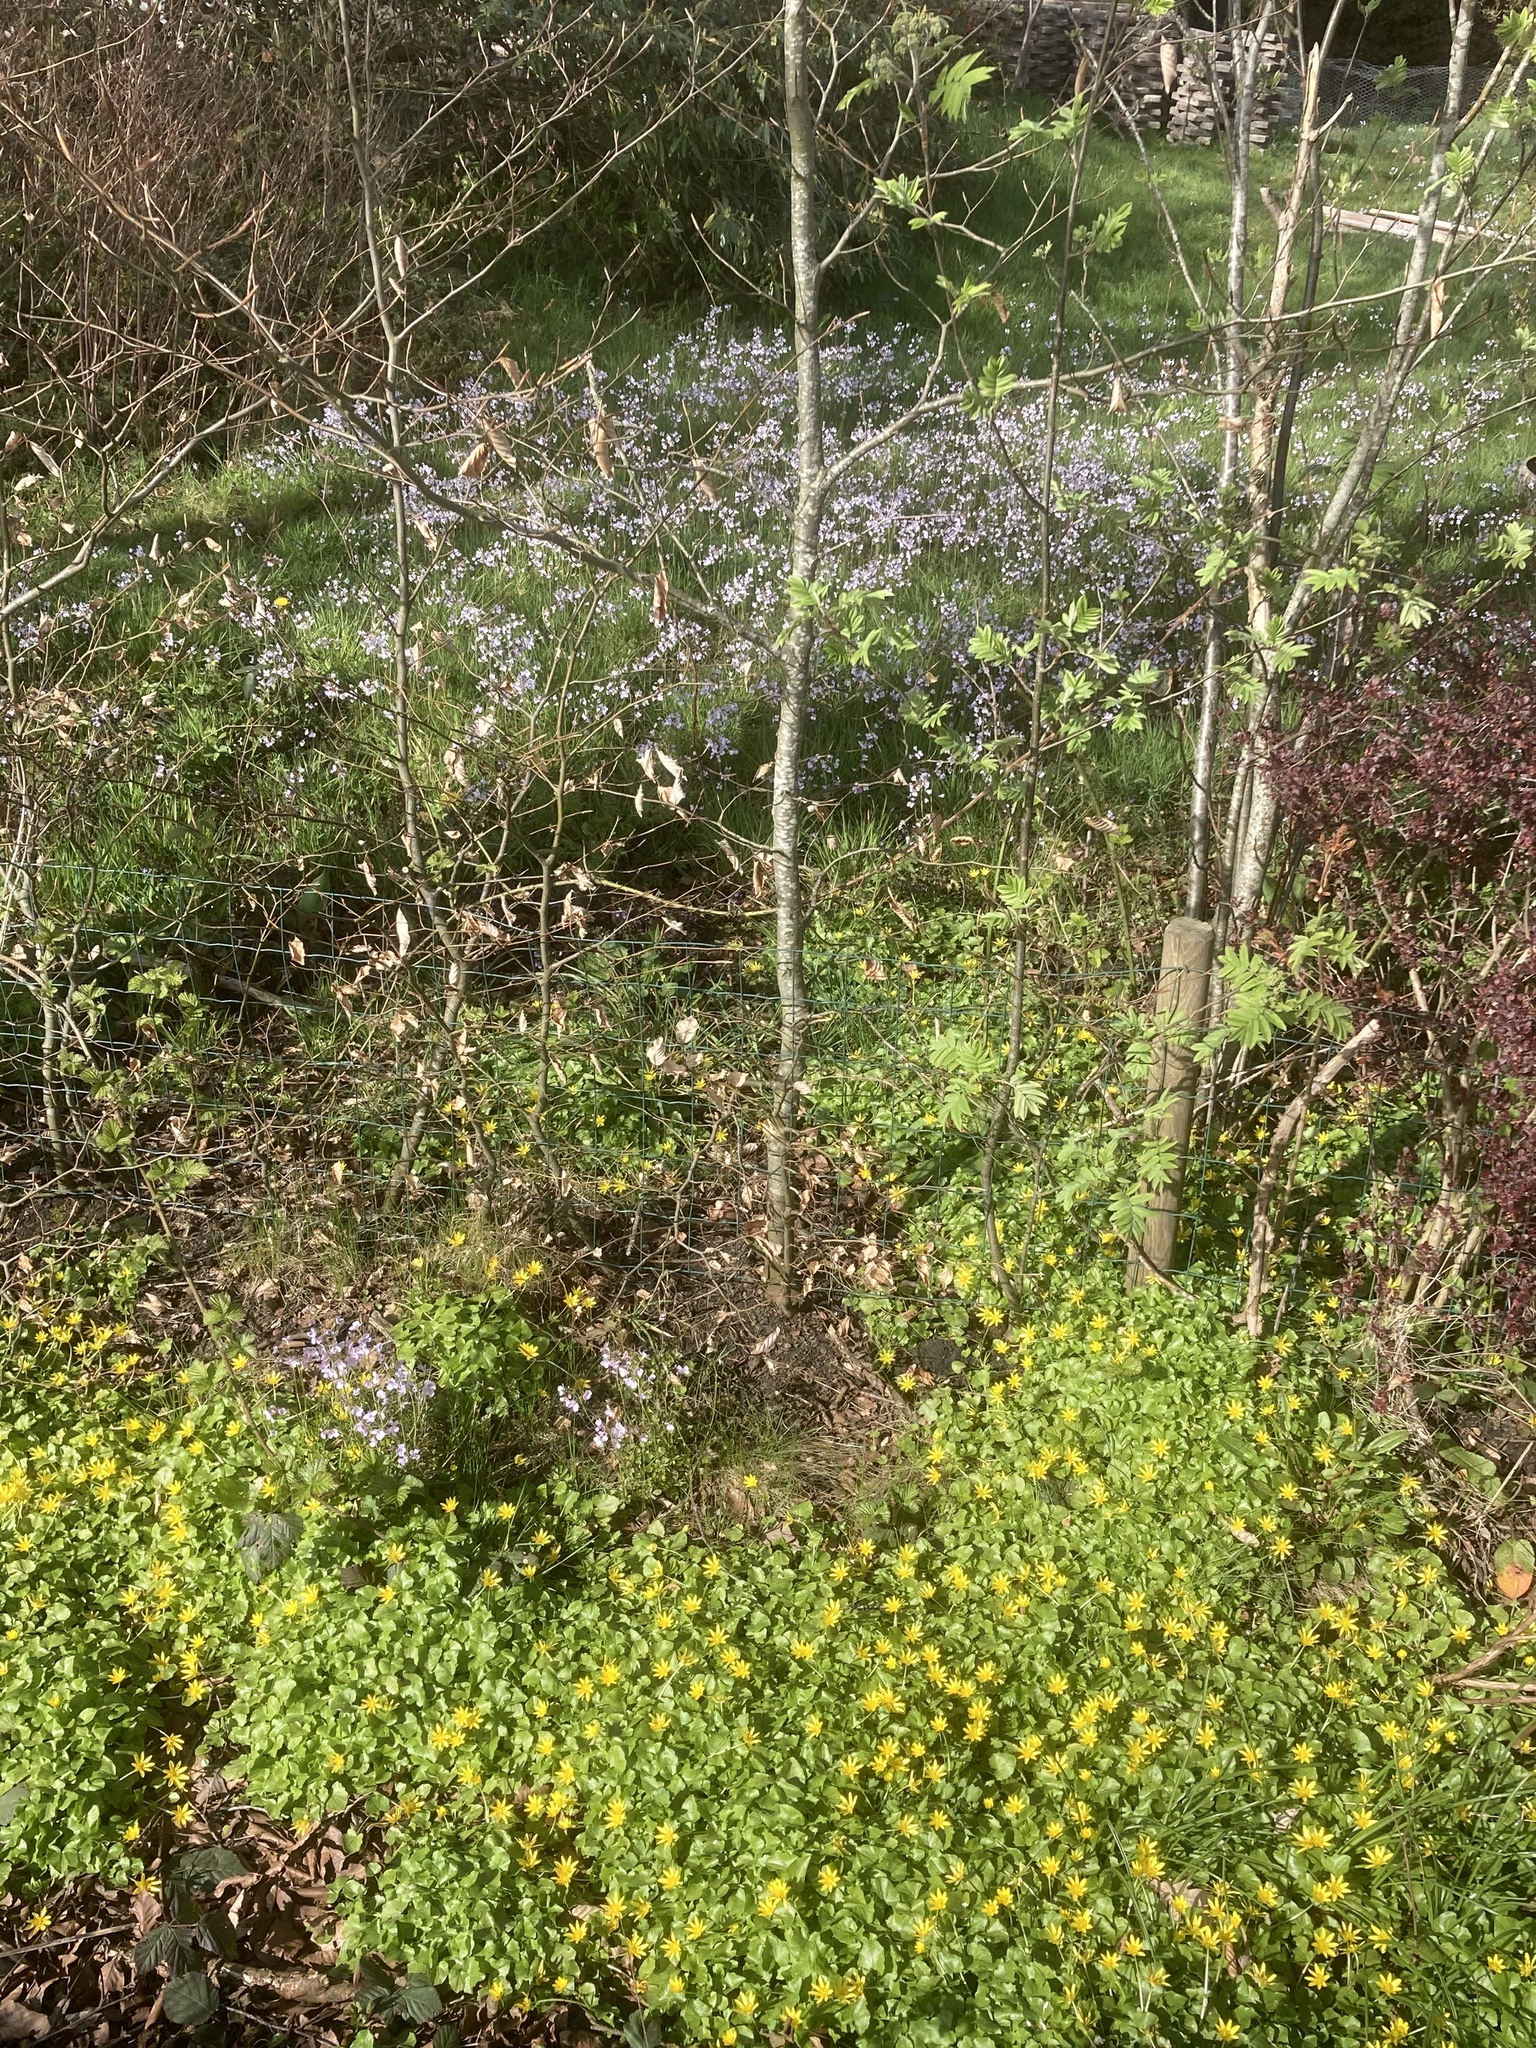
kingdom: Plantae
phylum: Tracheophyta
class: Magnoliopsida
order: Brassicales
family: Brassicaceae
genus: Cardamine
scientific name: Cardamine pratensis
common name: Cuckoo flower
